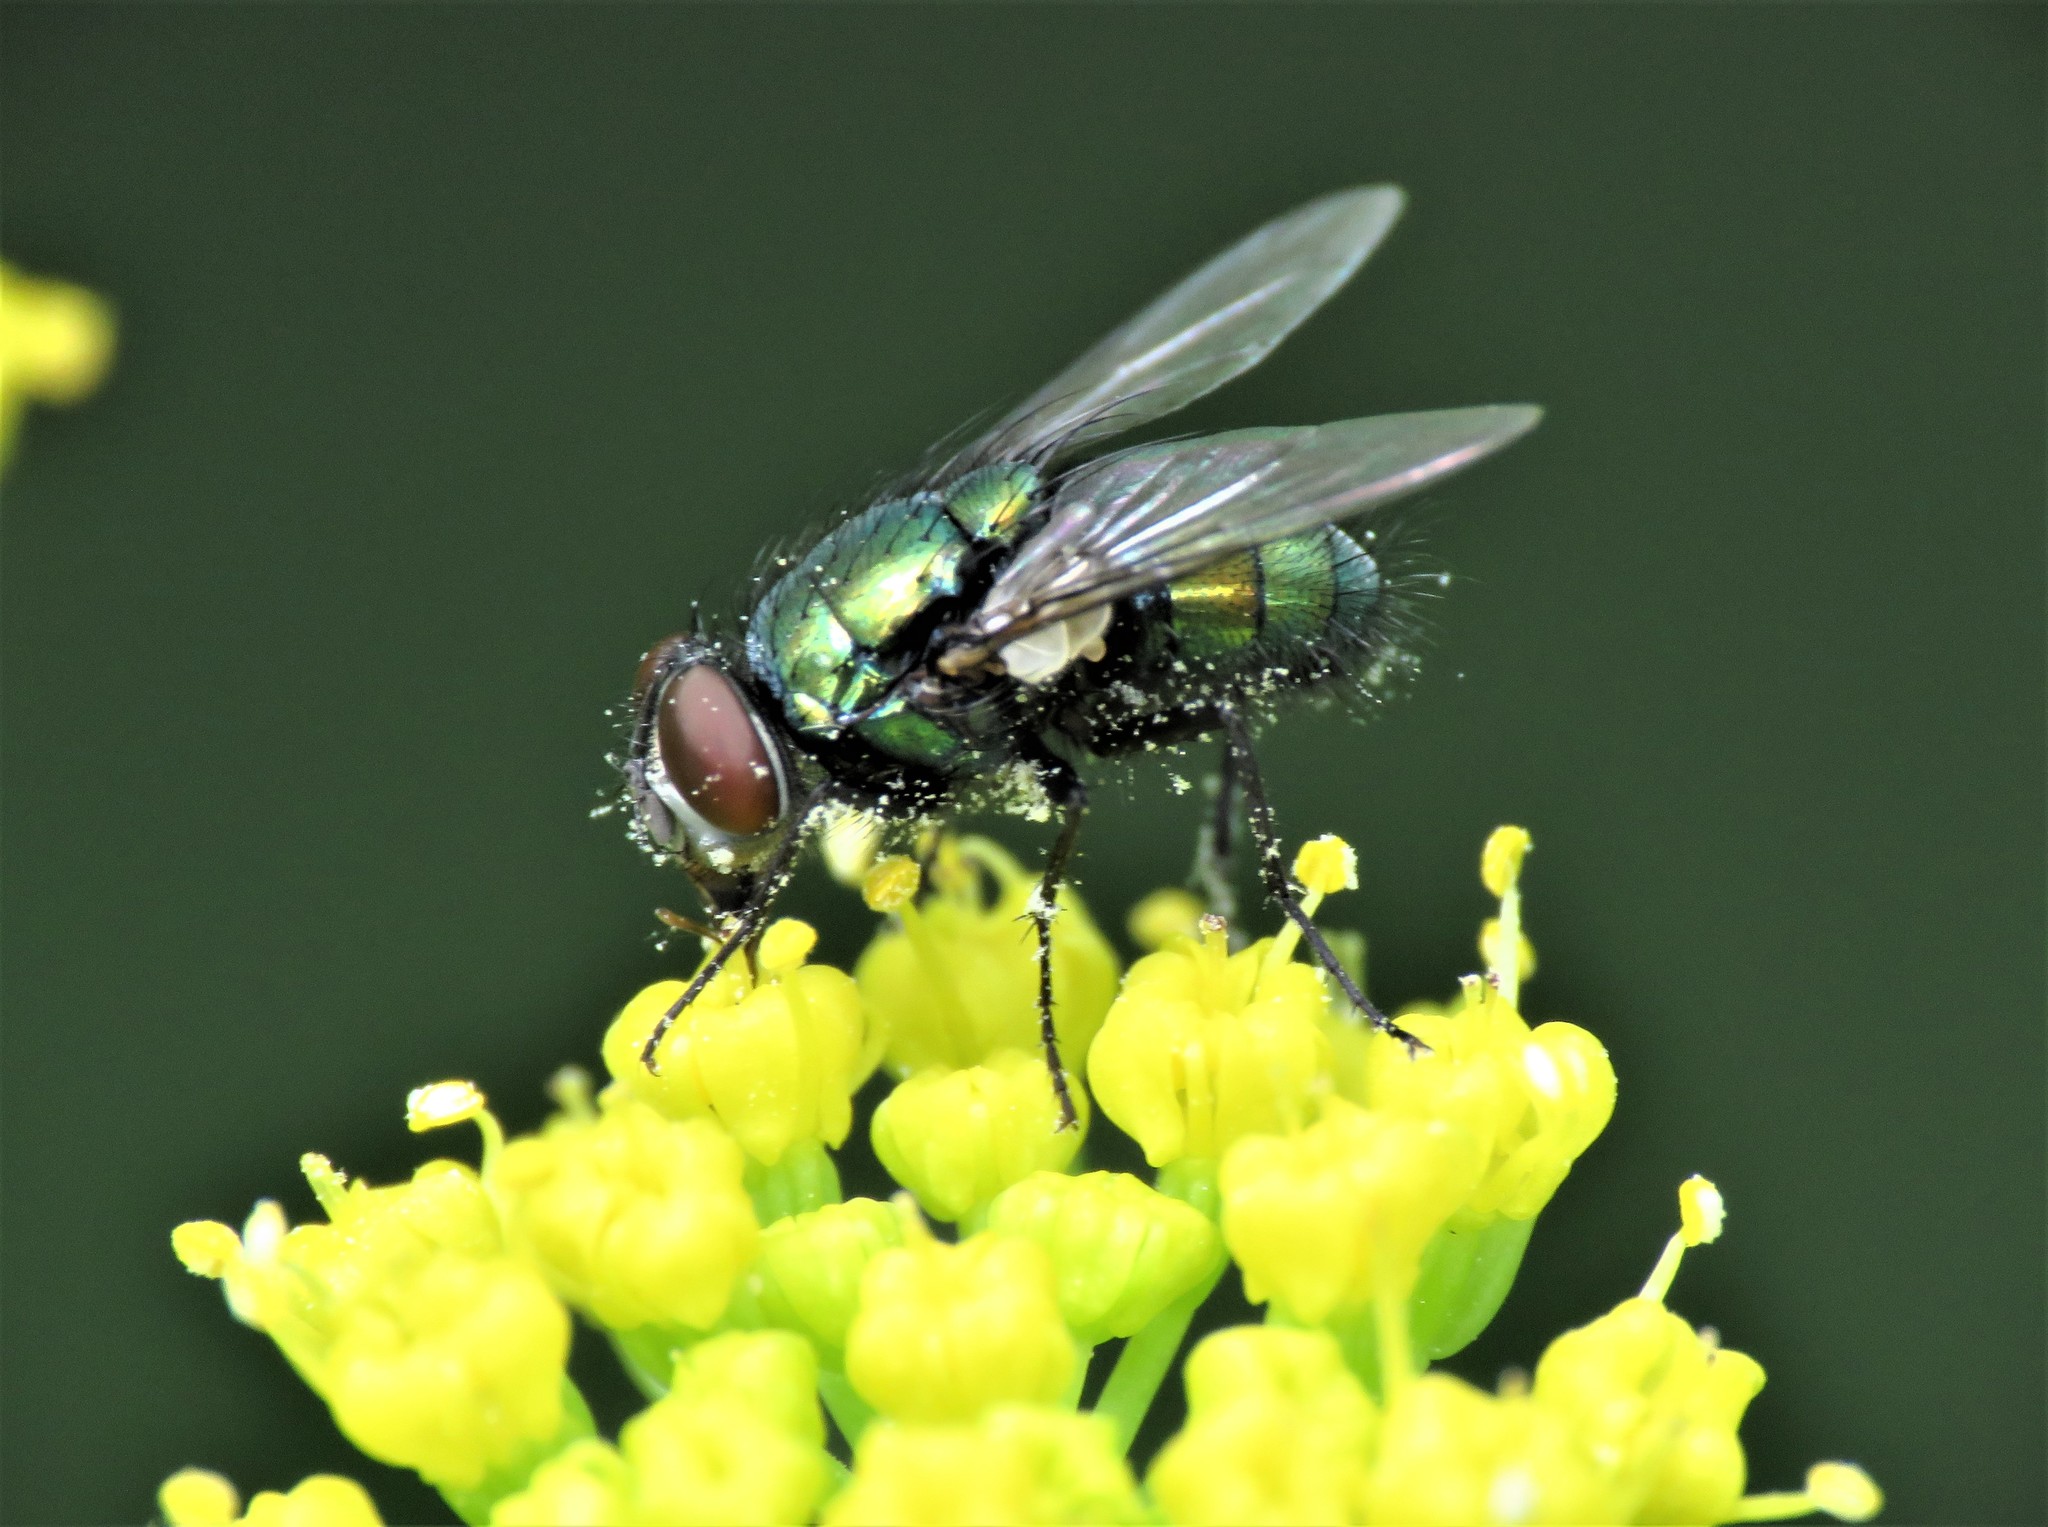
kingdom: Animalia
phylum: Arthropoda
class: Insecta
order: Diptera
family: Calliphoridae
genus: Lucilia
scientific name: Lucilia sericata
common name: Blow fly
